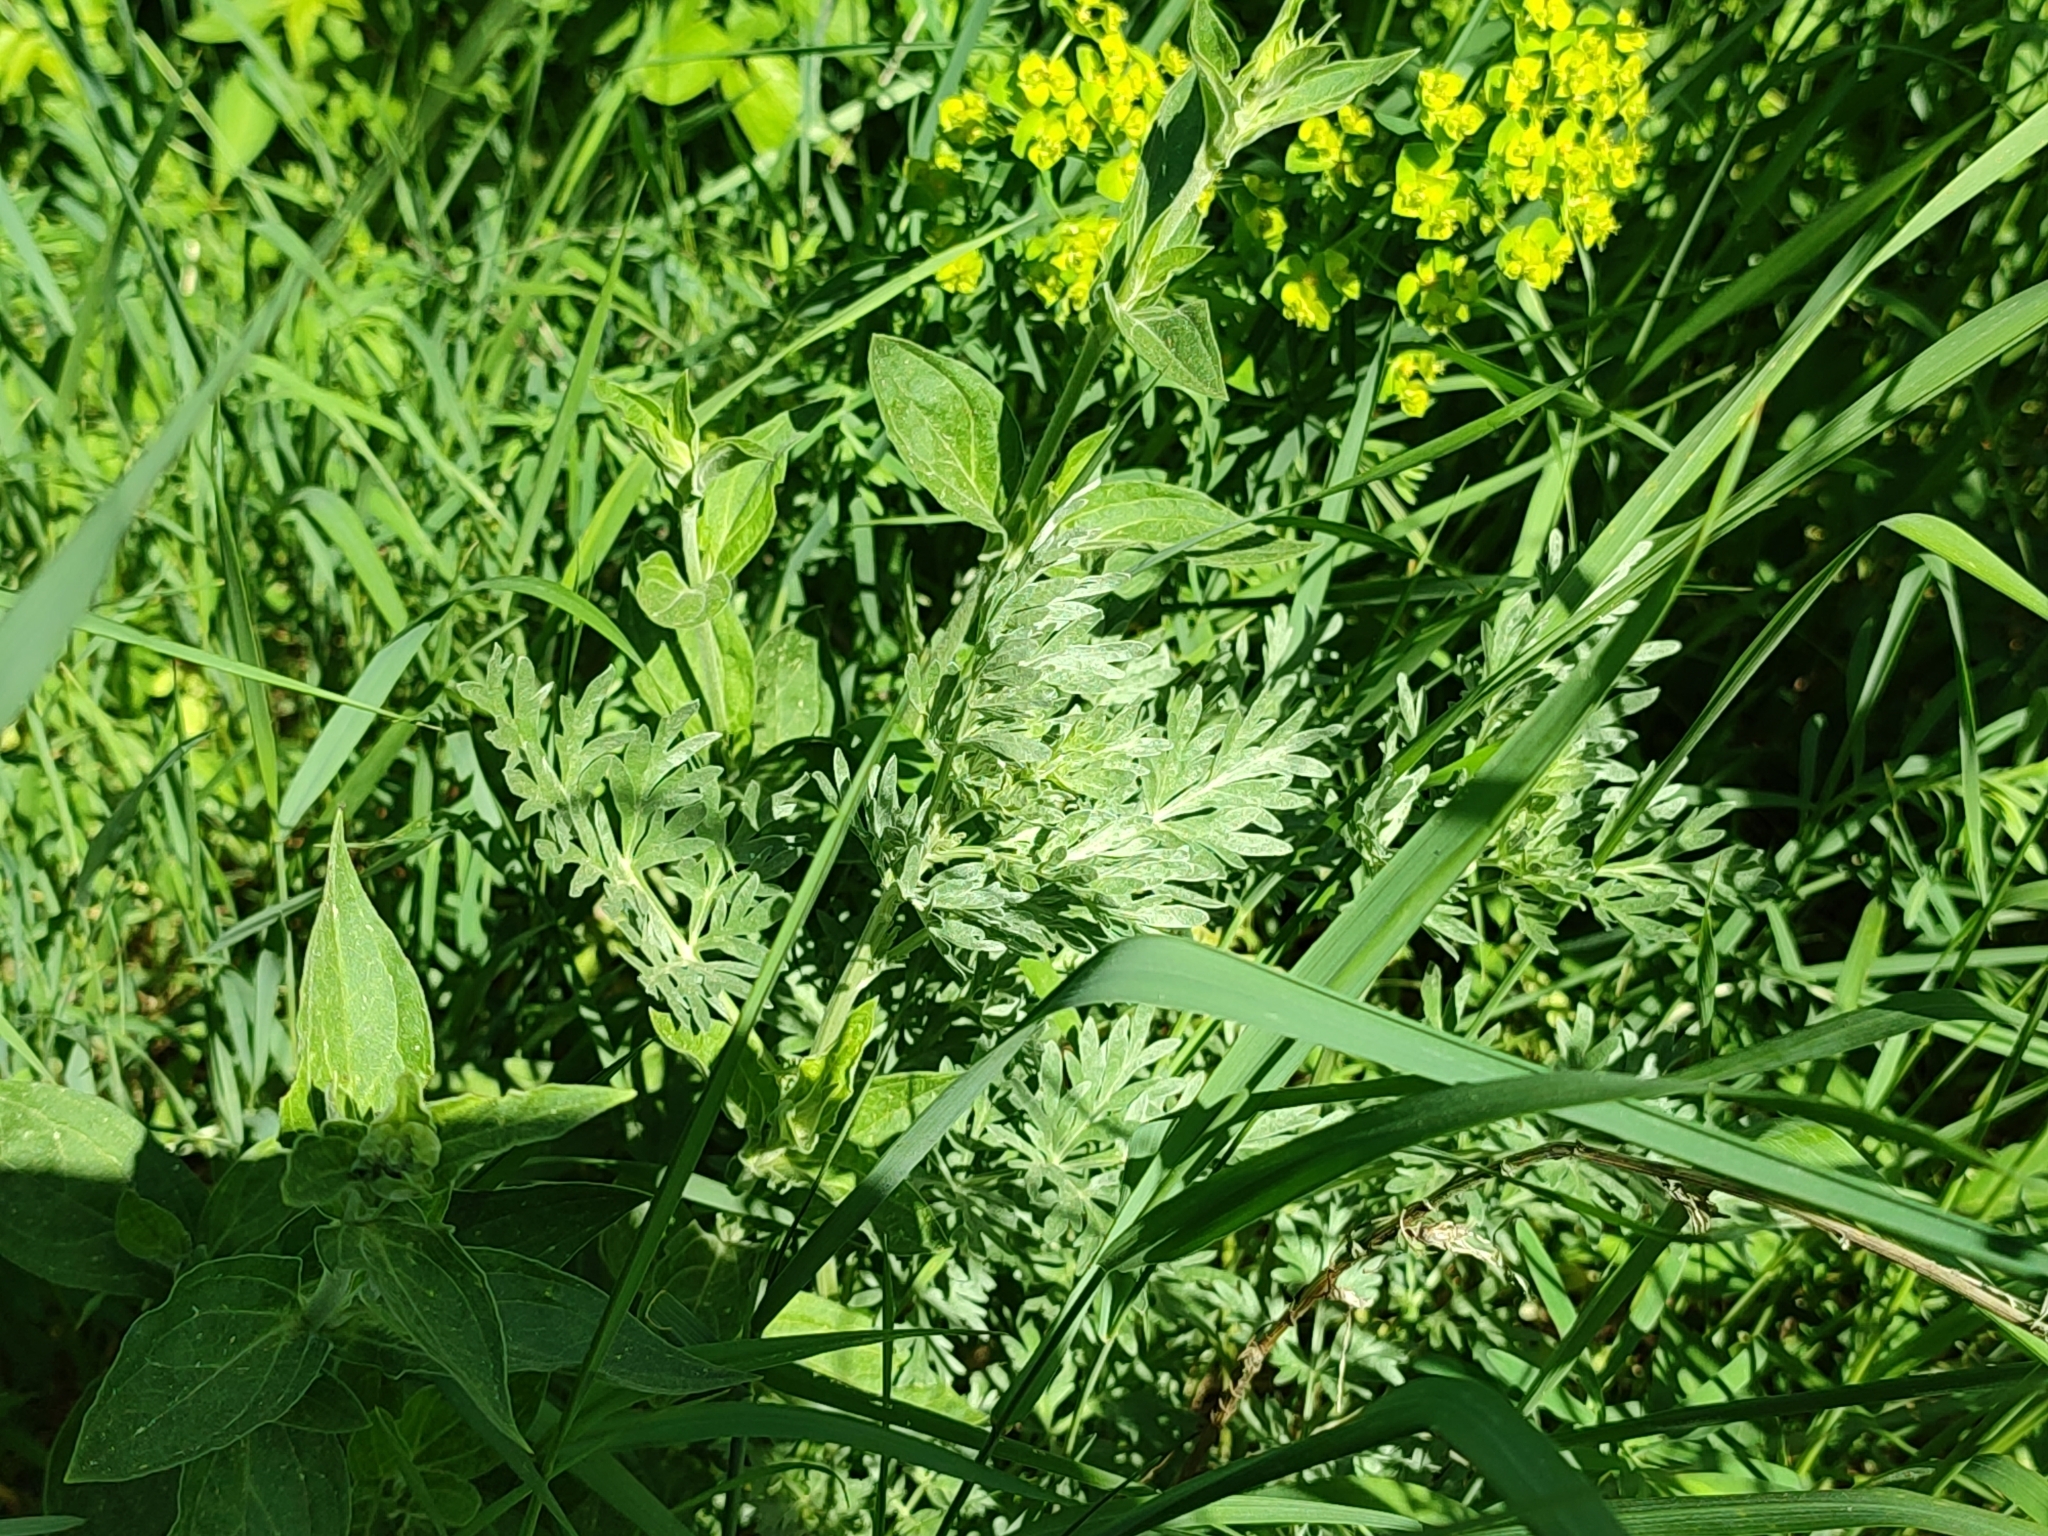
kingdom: Plantae
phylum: Tracheophyta
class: Magnoliopsida
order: Asterales
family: Asteraceae
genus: Artemisia
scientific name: Artemisia absinthium
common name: Wormwood
